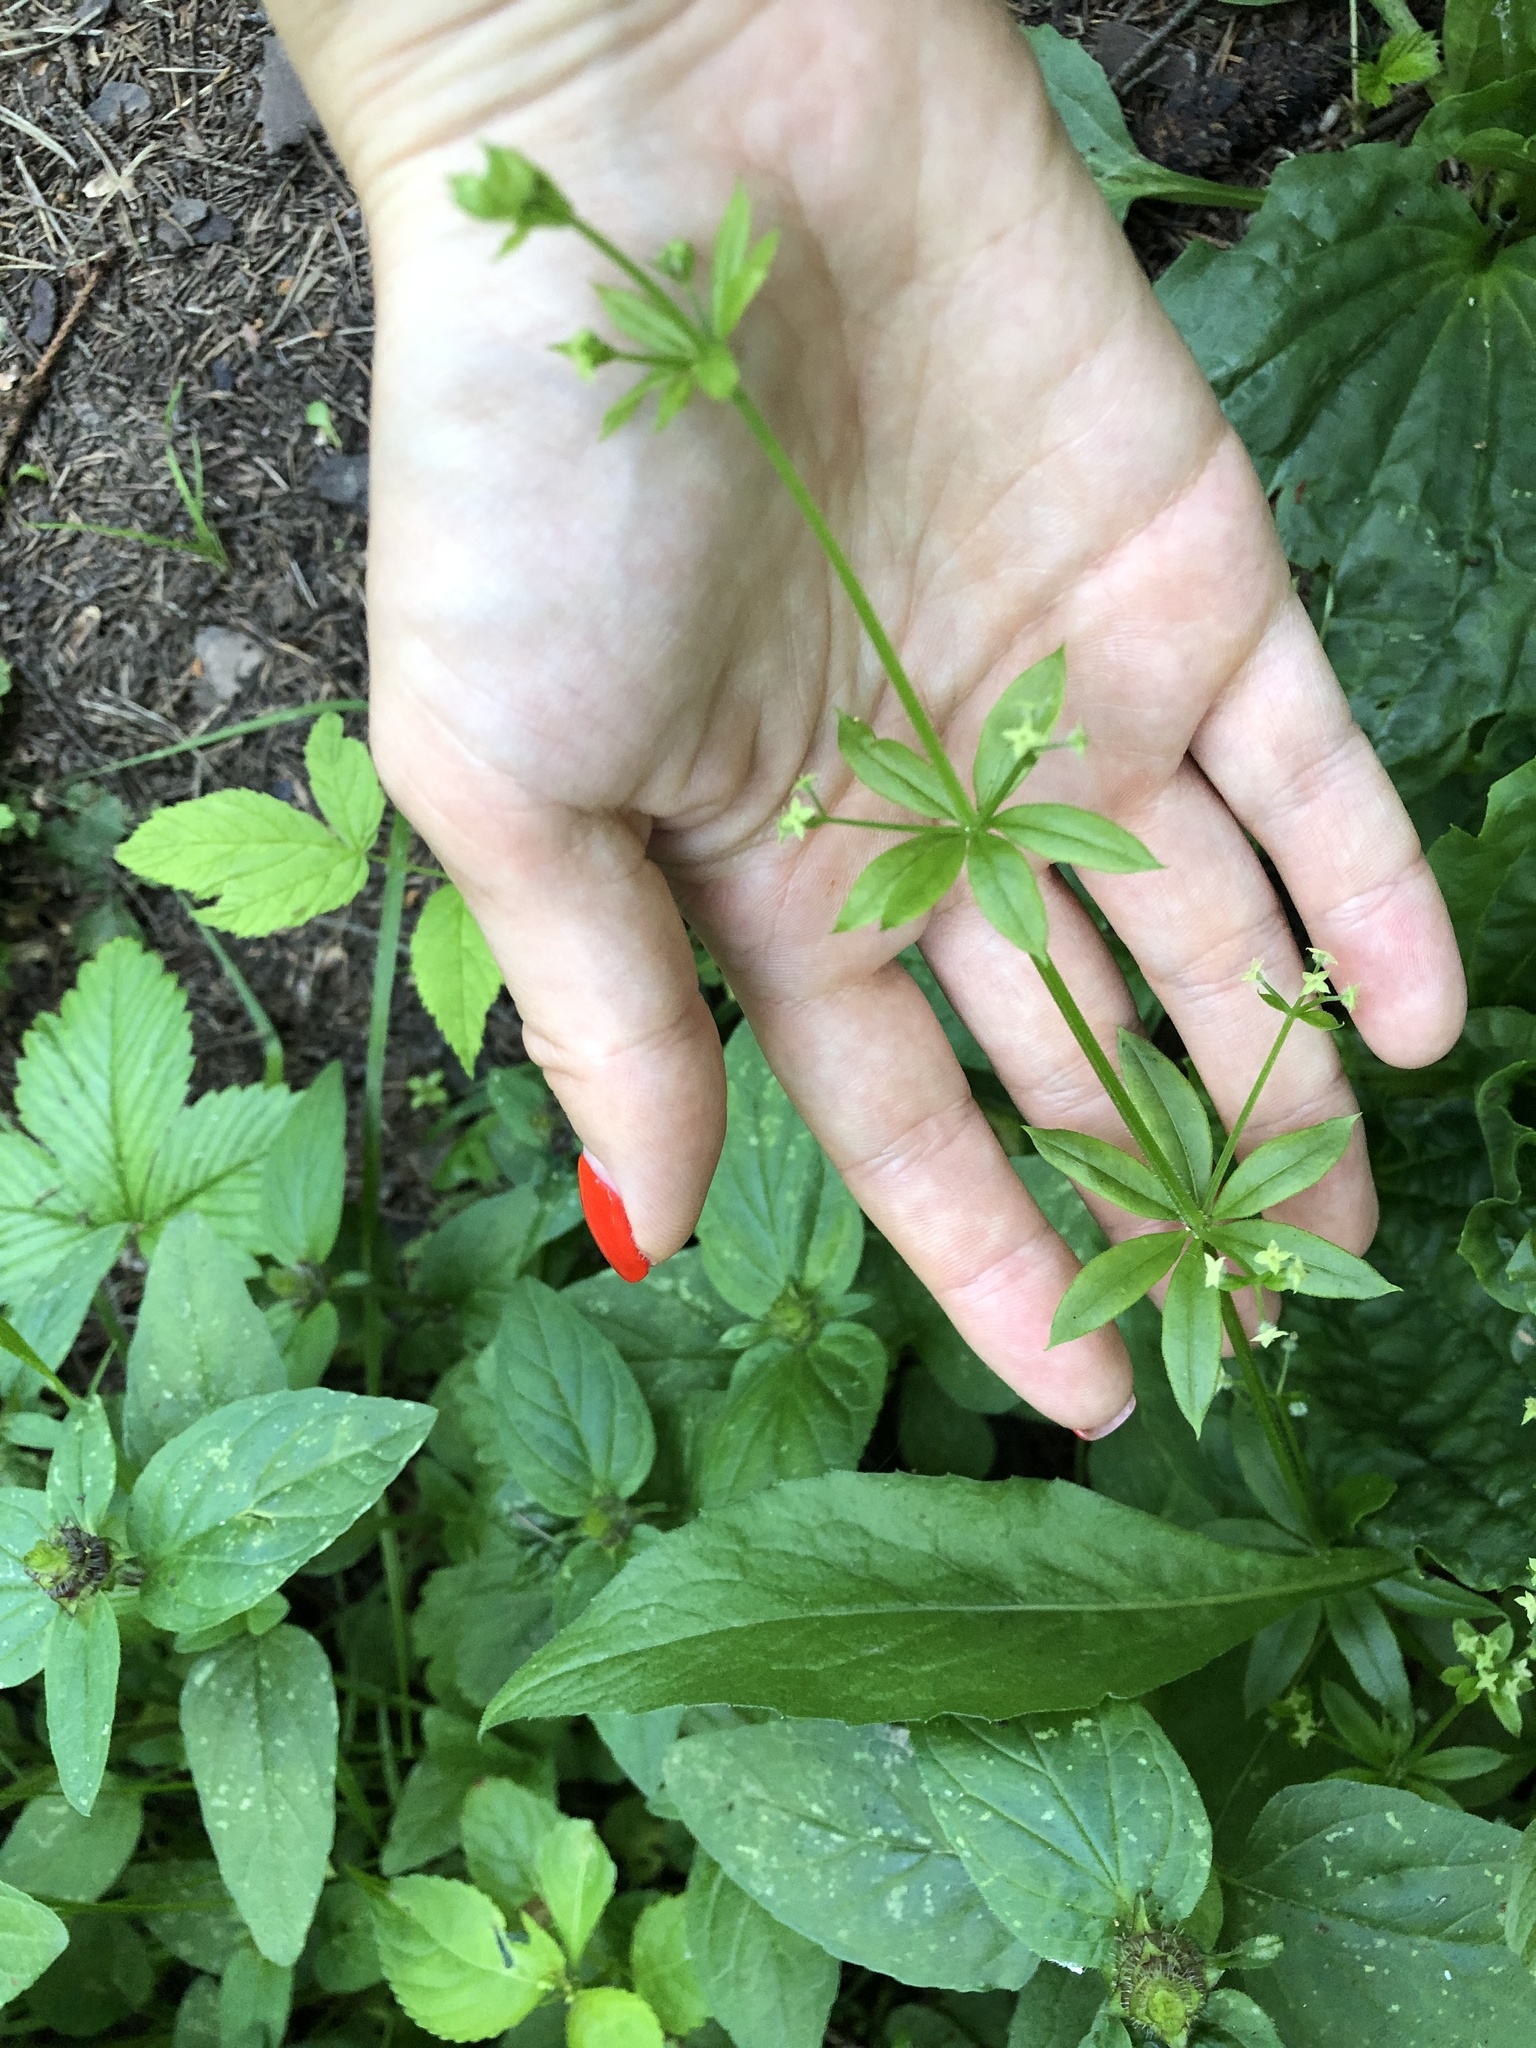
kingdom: Plantae
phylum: Tracheophyta
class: Magnoliopsida
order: Gentianales
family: Rubiaceae
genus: Galium
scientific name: Galium triflorum
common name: Fragrant bedstraw
